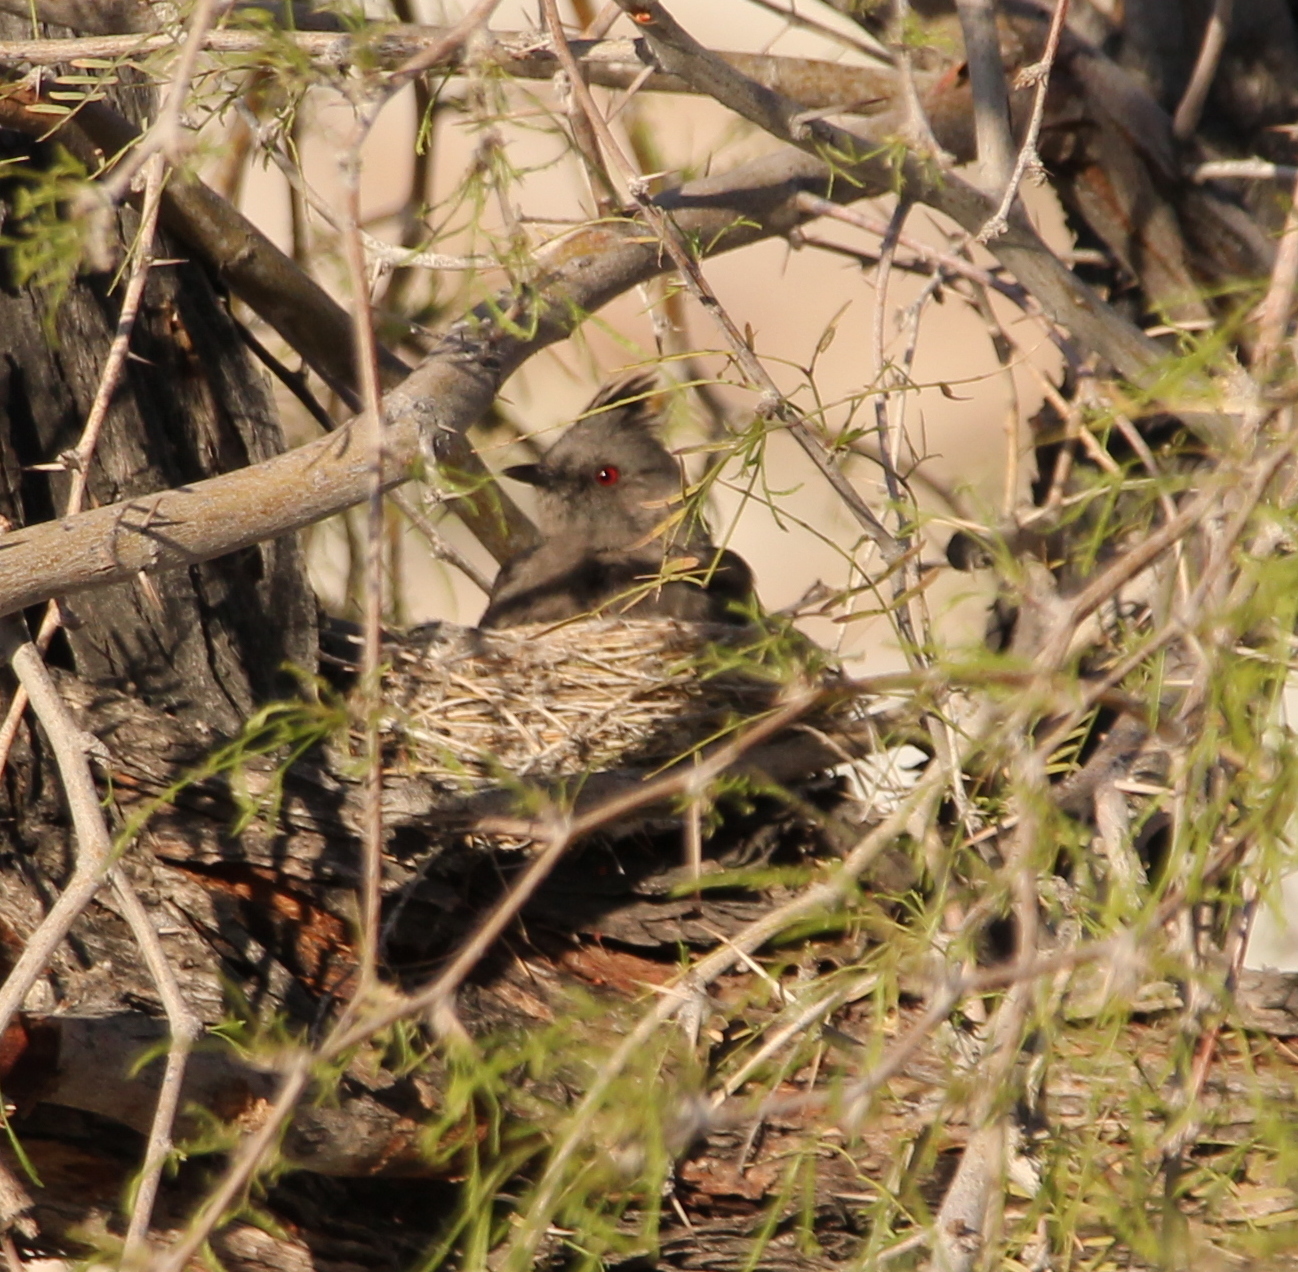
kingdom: Animalia
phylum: Chordata
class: Aves
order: Passeriformes
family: Ptilogonatidae
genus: Phainopepla
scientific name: Phainopepla nitens
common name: Phainopepla
